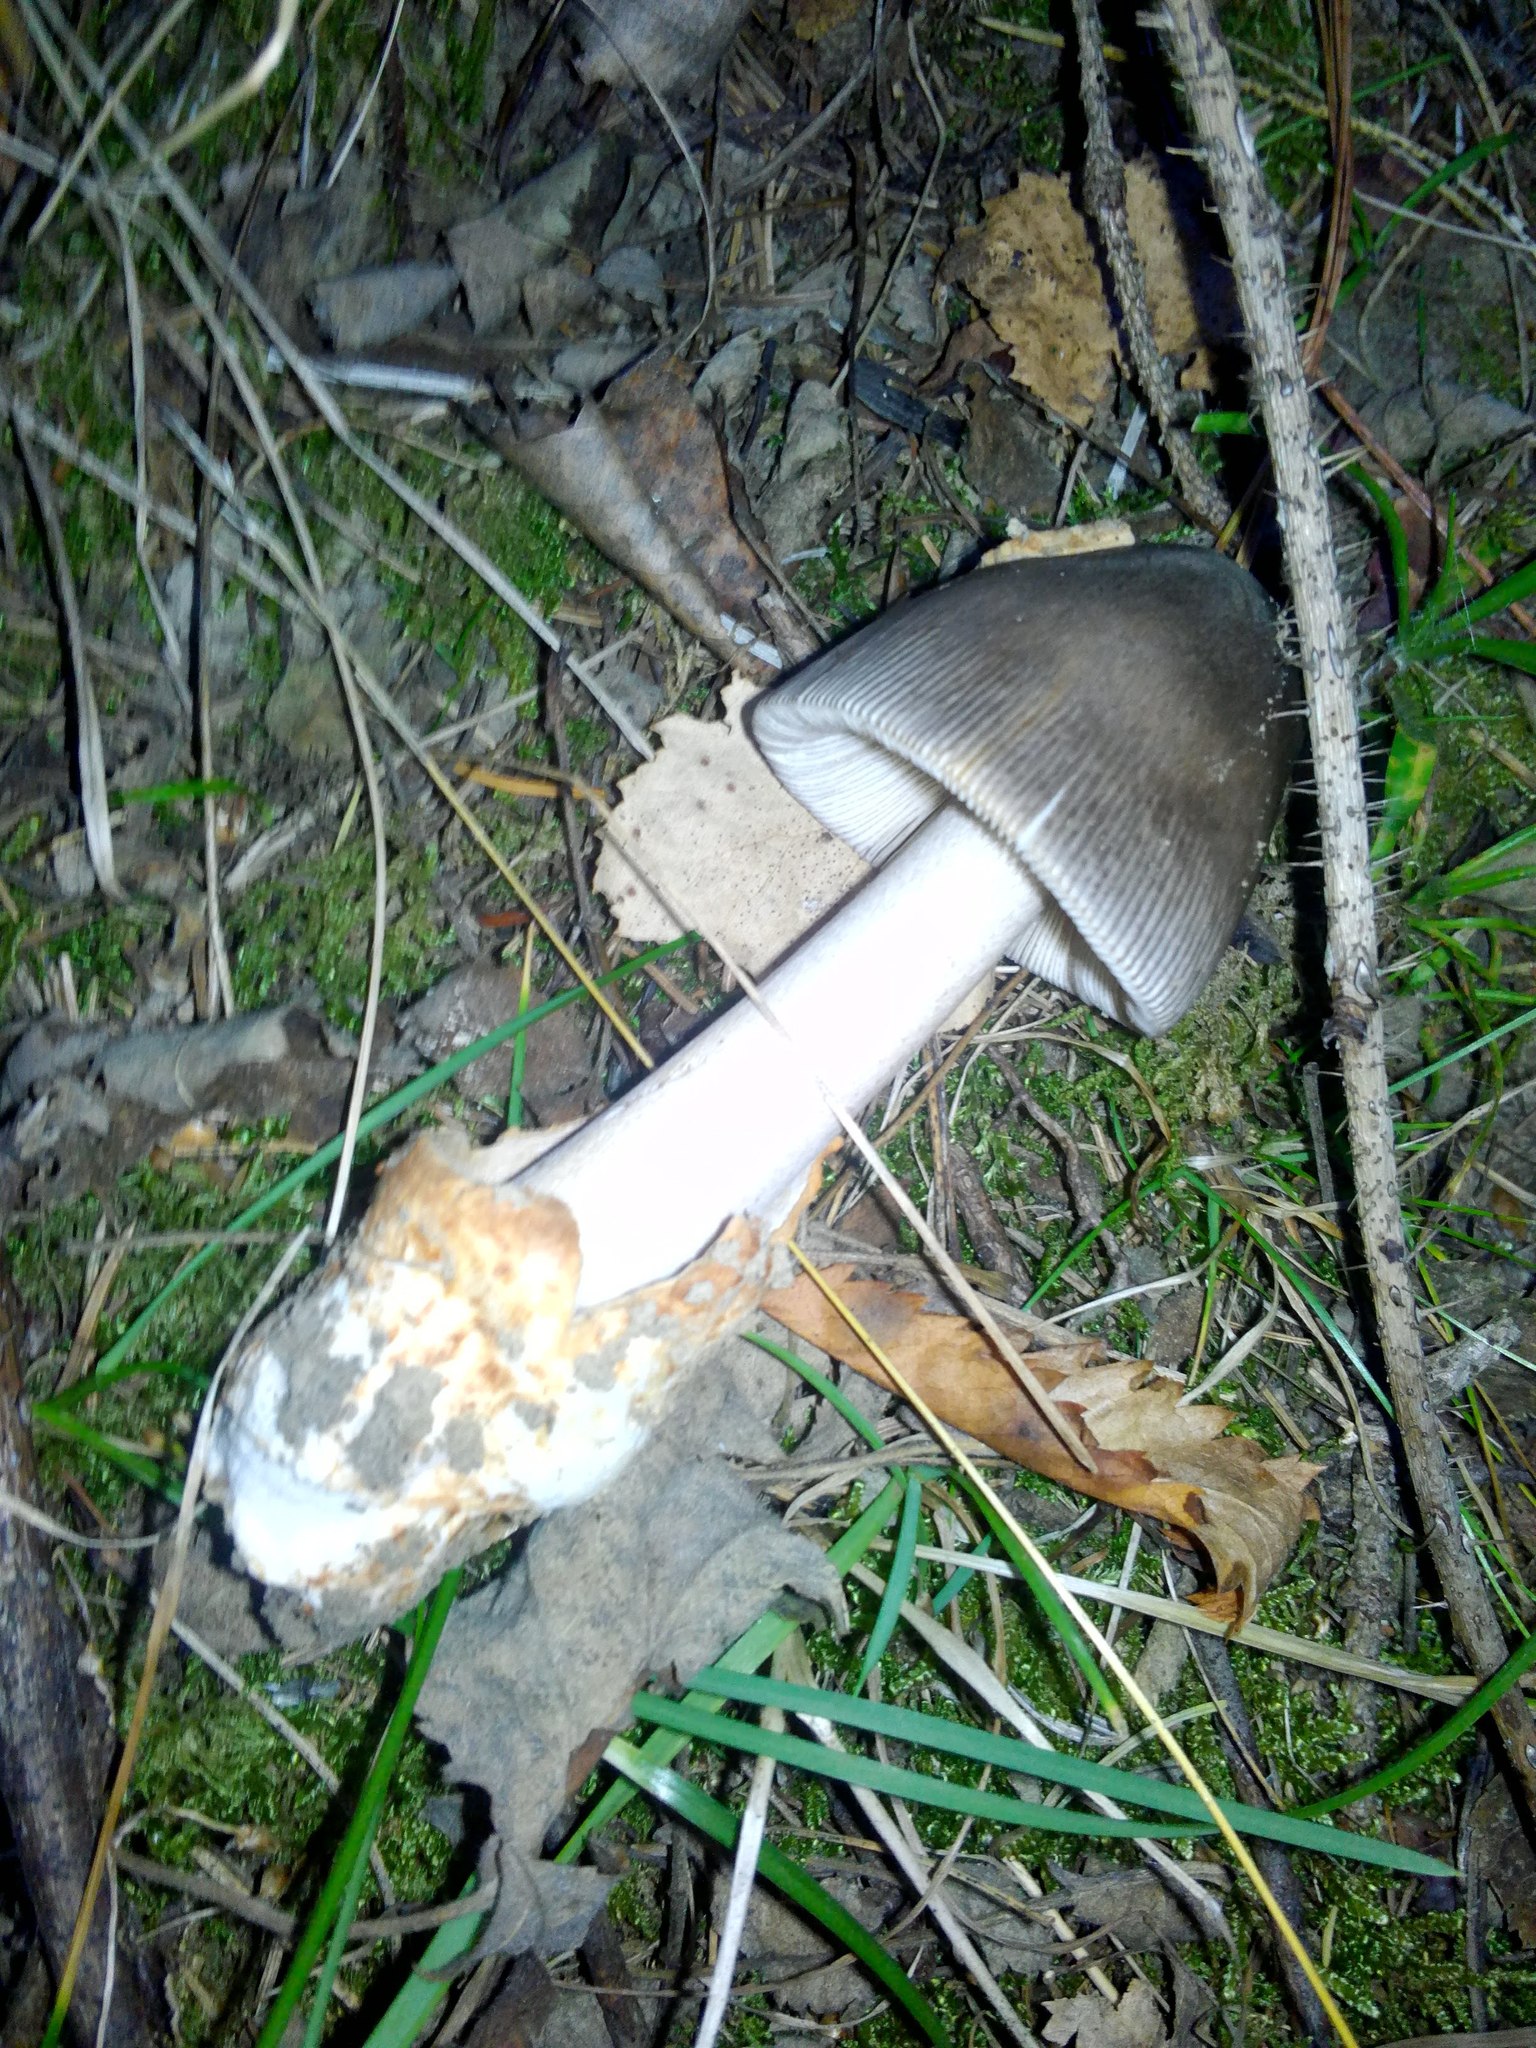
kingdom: Fungi
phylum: Basidiomycota
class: Agaricomycetes
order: Agaricales
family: Amanitaceae
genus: Amanita
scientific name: Amanita vaginata
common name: Grisette
